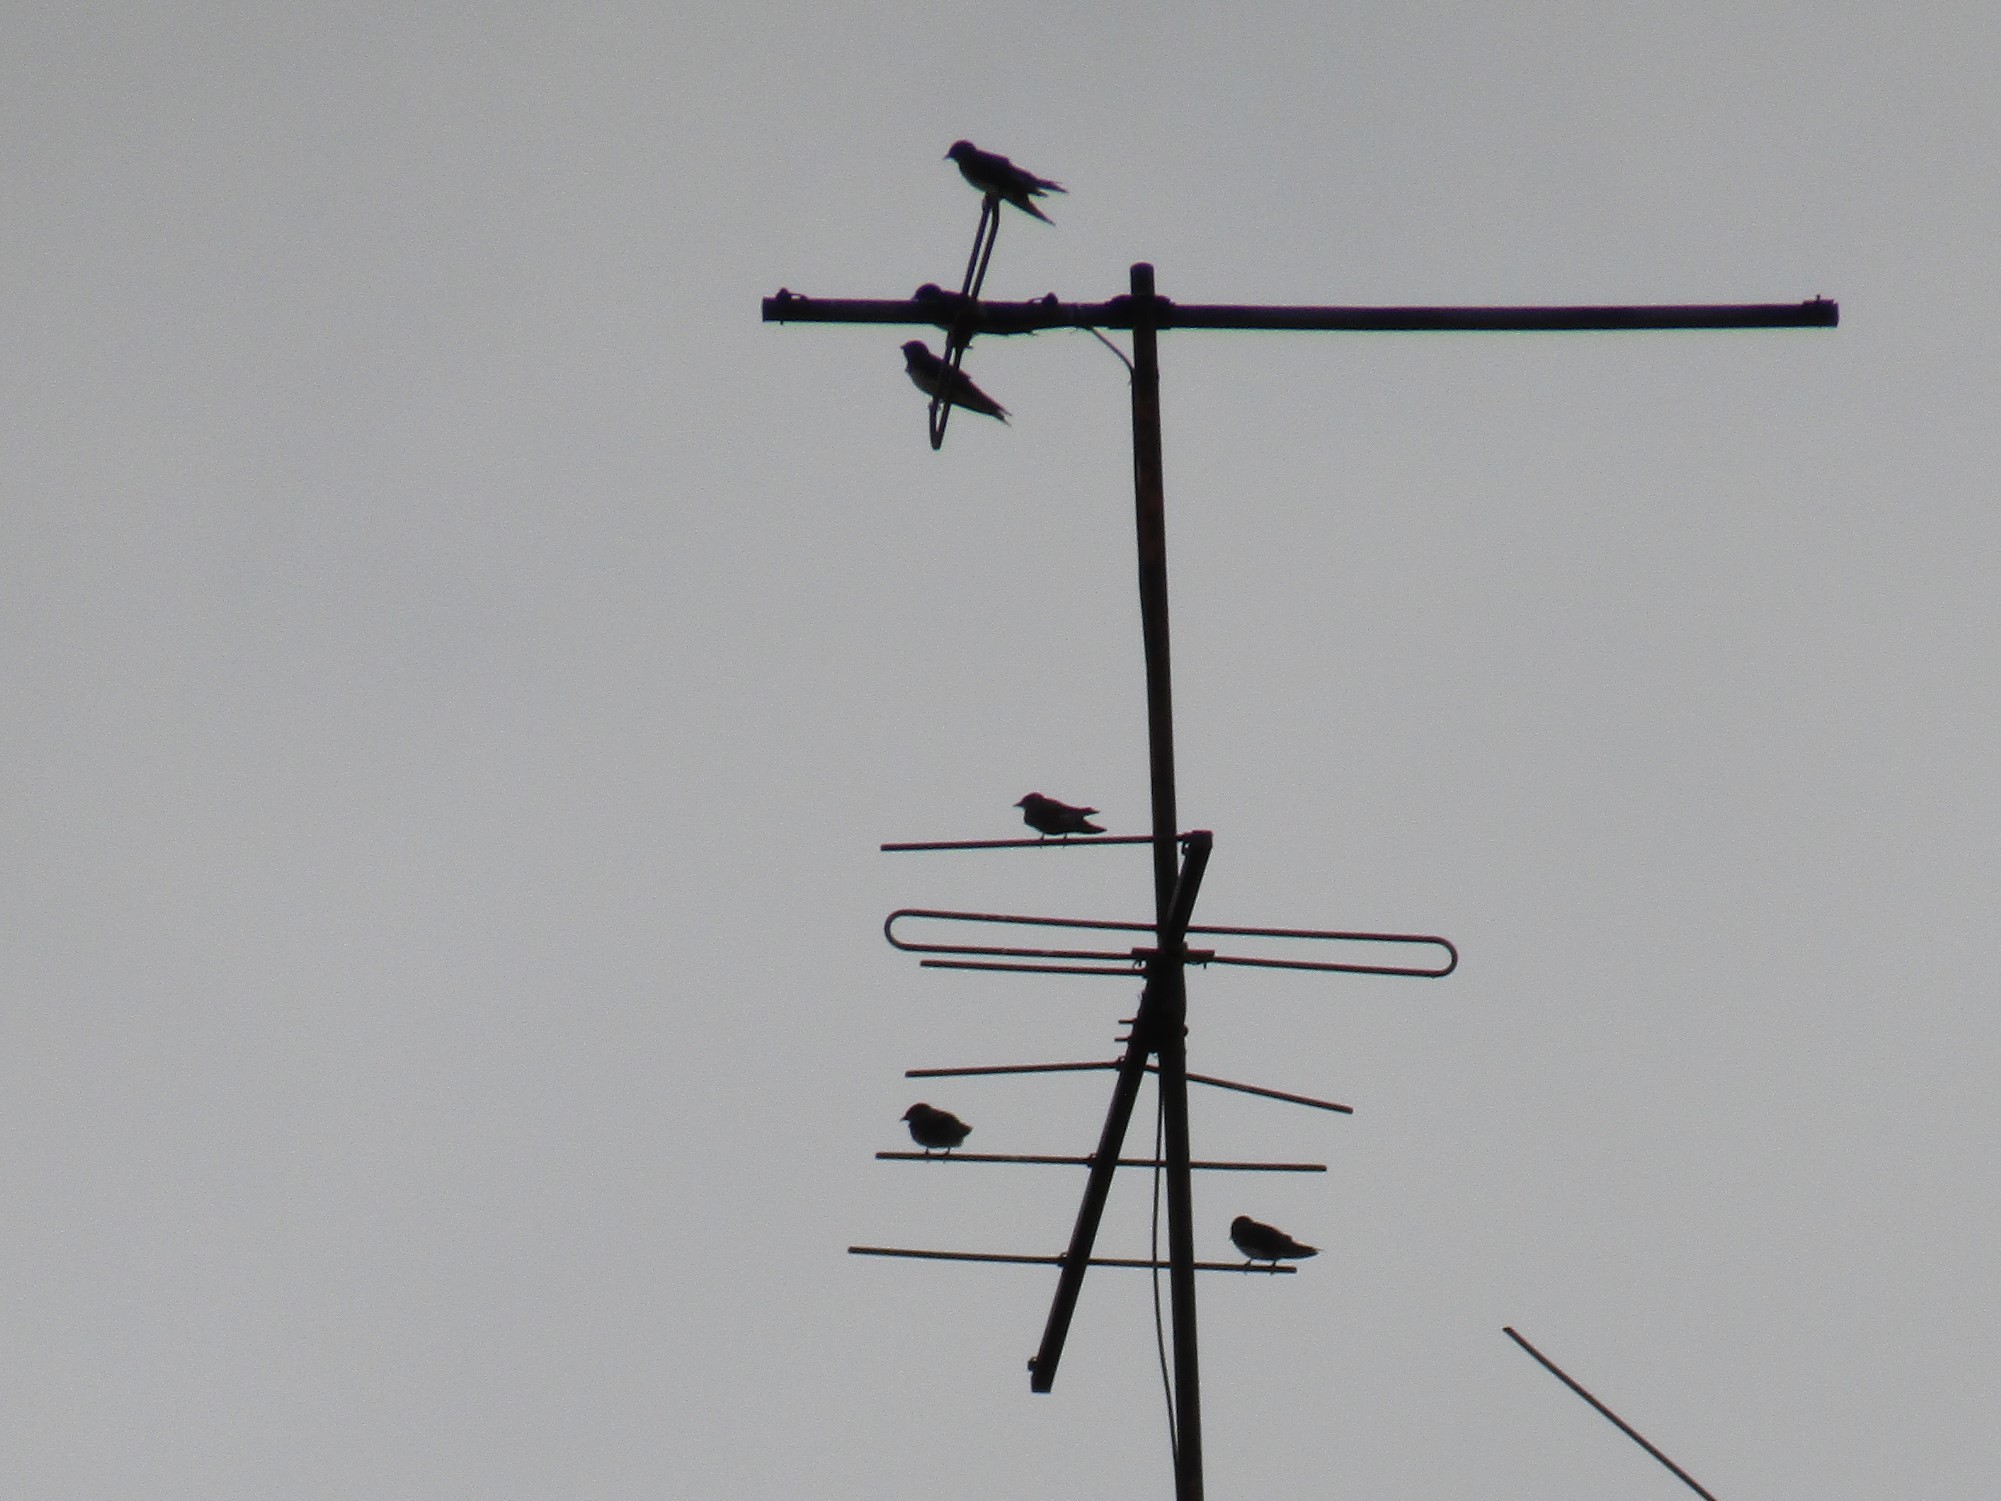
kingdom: Animalia
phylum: Chordata
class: Aves
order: Passeriformes
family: Hirundinidae
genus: Progne
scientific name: Progne chalybea
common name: Grey-breasted martin
